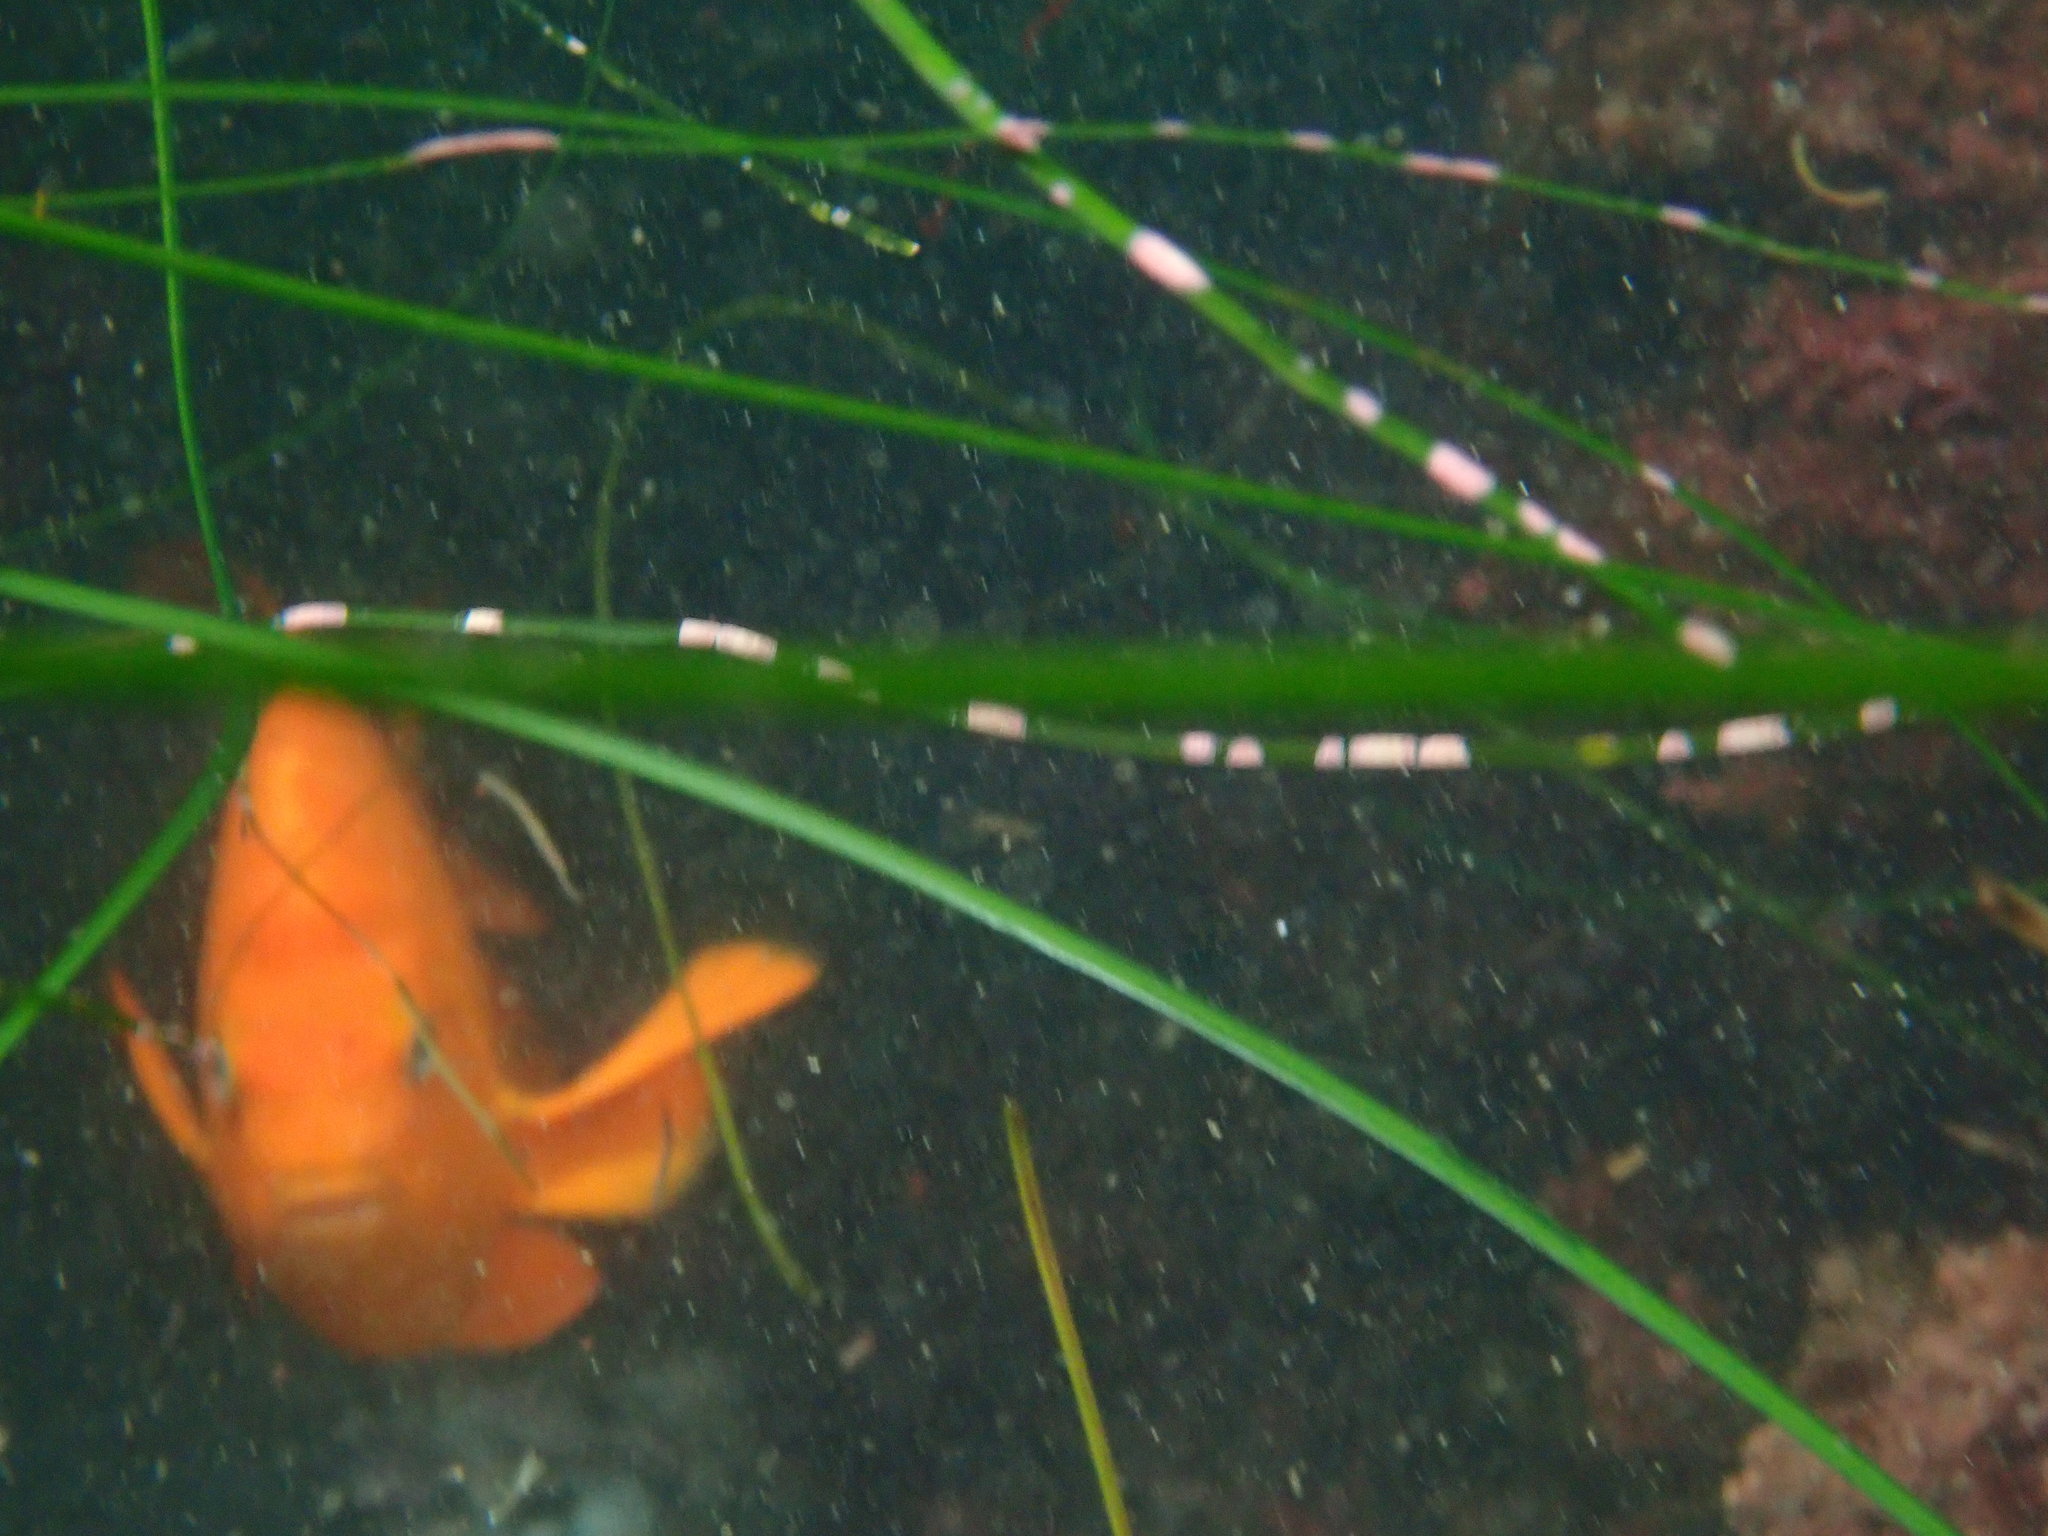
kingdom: Animalia
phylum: Chordata
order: Perciformes
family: Pomacentridae
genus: Hypsypops
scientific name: Hypsypops rubicundus
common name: Garibaldi
